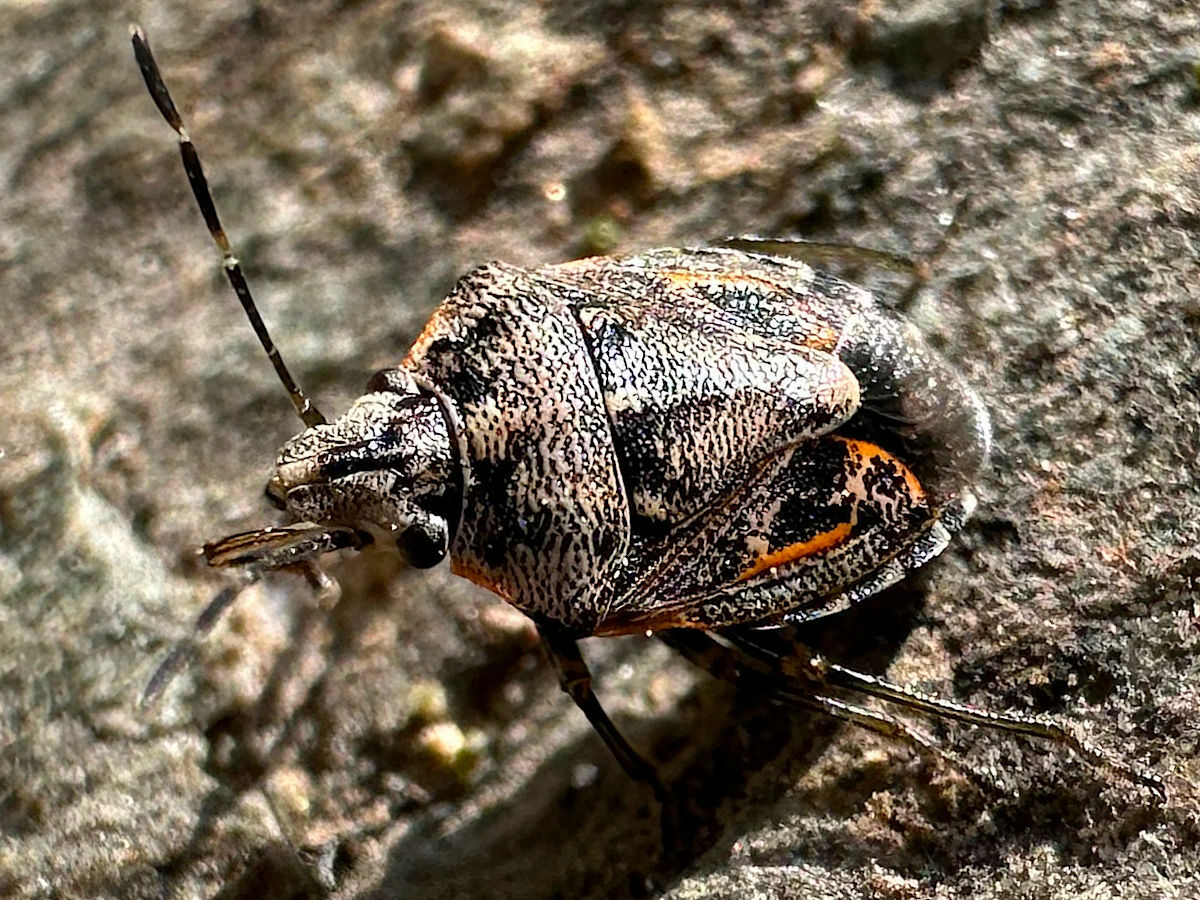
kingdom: Animalia
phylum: Arthropoda
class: Insecta
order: Hemiptera
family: Pentatomidae
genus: Holcogaster
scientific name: Holcogaster fibulata
